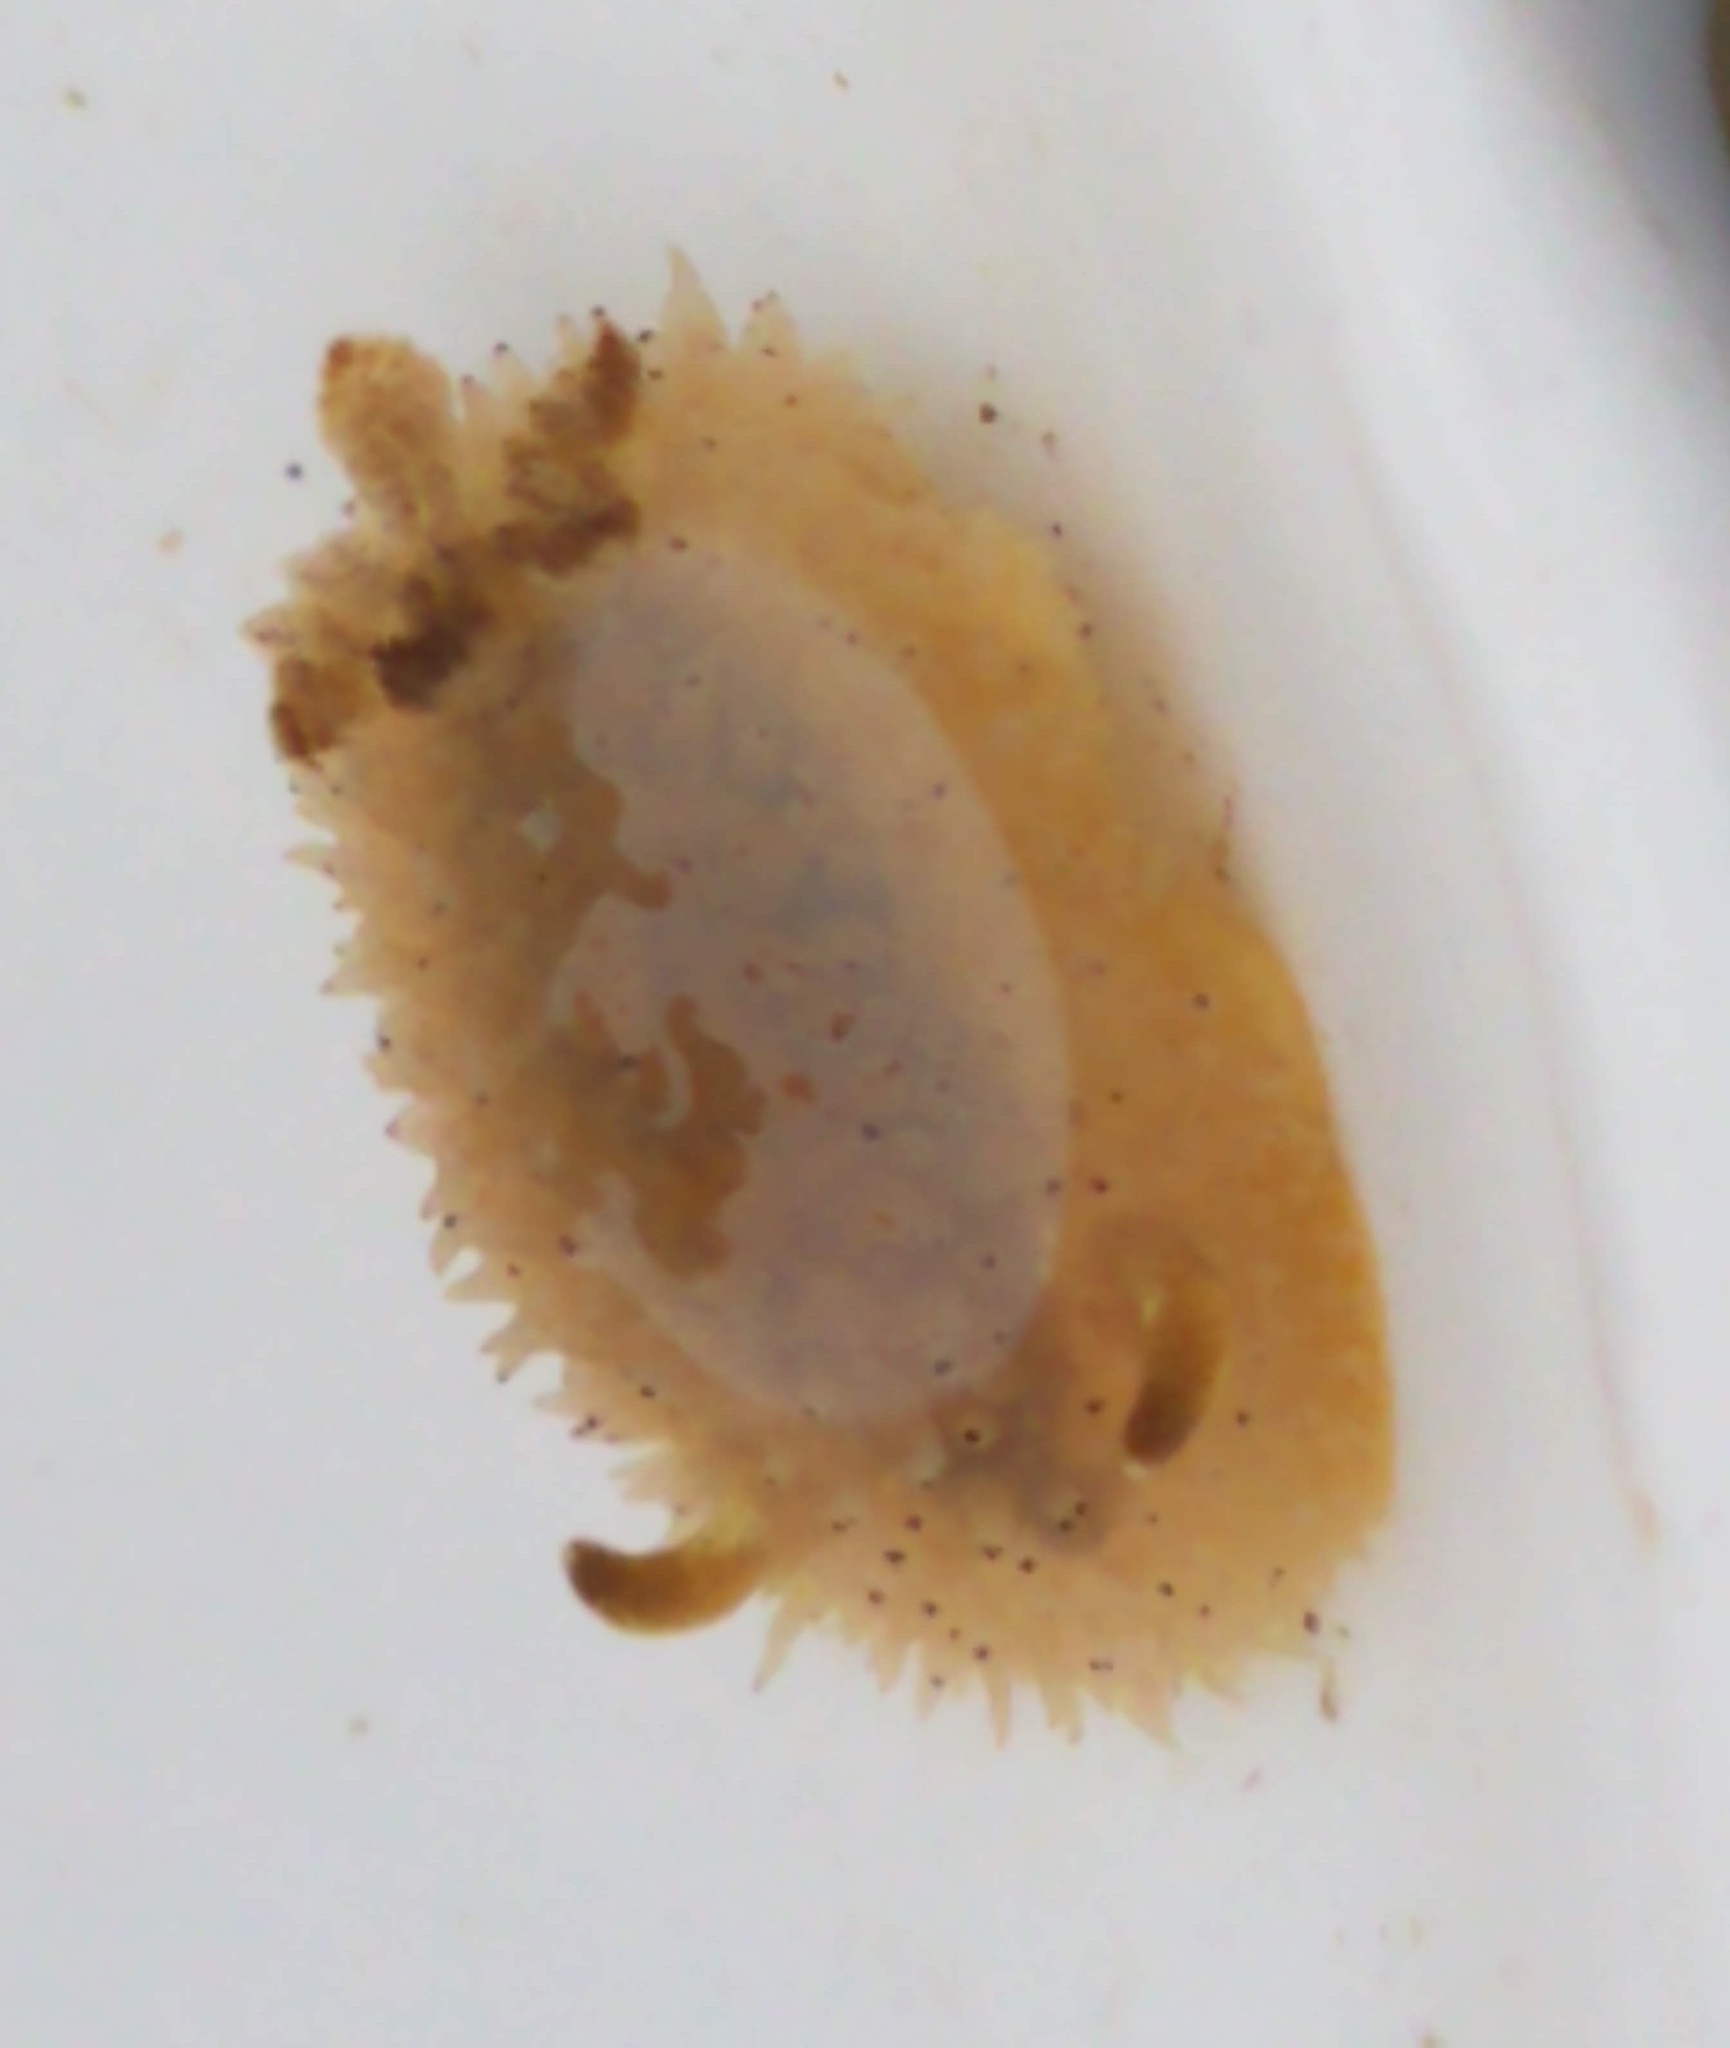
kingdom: Animalia
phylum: Mollusca
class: Gastropoda
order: Nudibranchia
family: Onchidorididae
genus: Acanthodoris
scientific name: Acanthodoris rhodoceras
